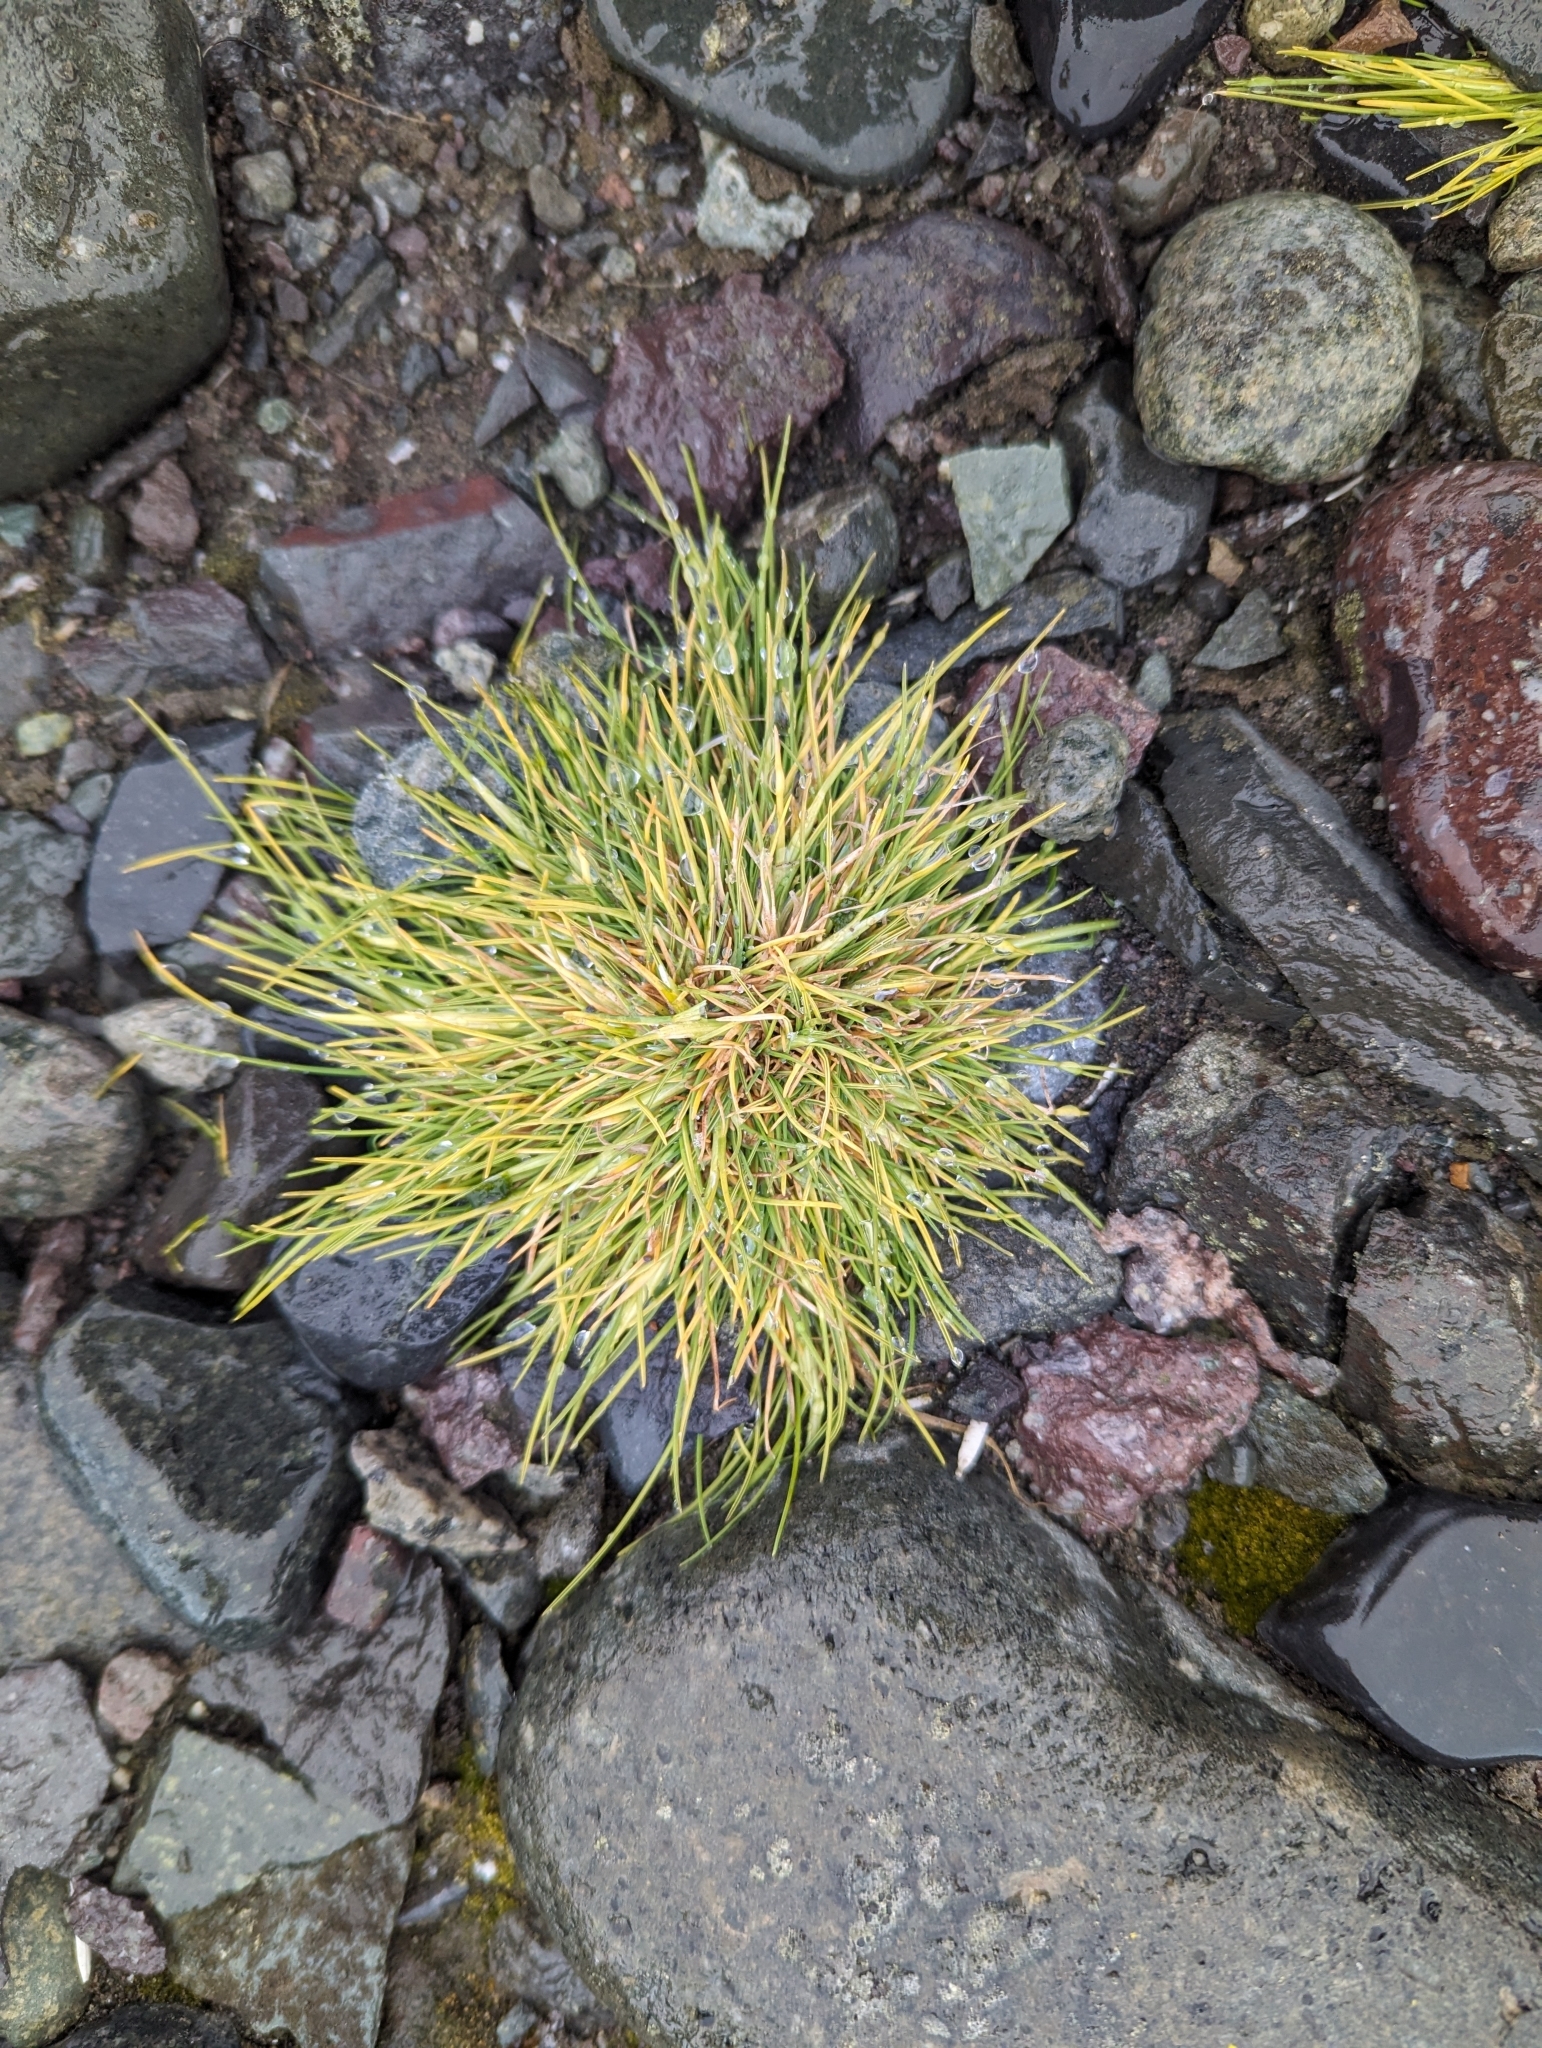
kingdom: Plantae
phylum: Tracheophyta
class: Liliopsida
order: Poales
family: Poaceae
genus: Deschampsia
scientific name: Deschampsia antarctica
